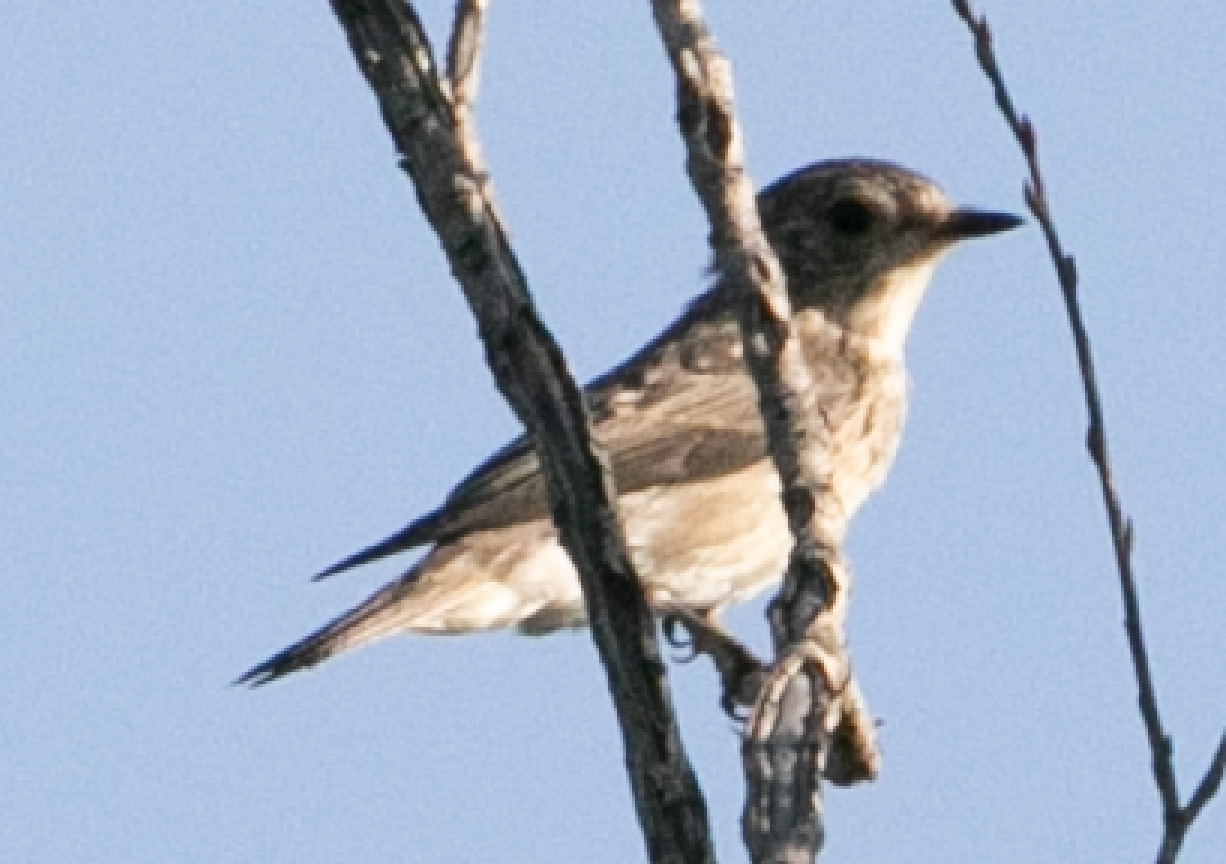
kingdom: Animalia
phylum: Chordata
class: Aves
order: Passeriformes
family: Muscicapidae
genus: Muscicapa
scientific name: Muscicapa striata
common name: Spotted flycatcher
